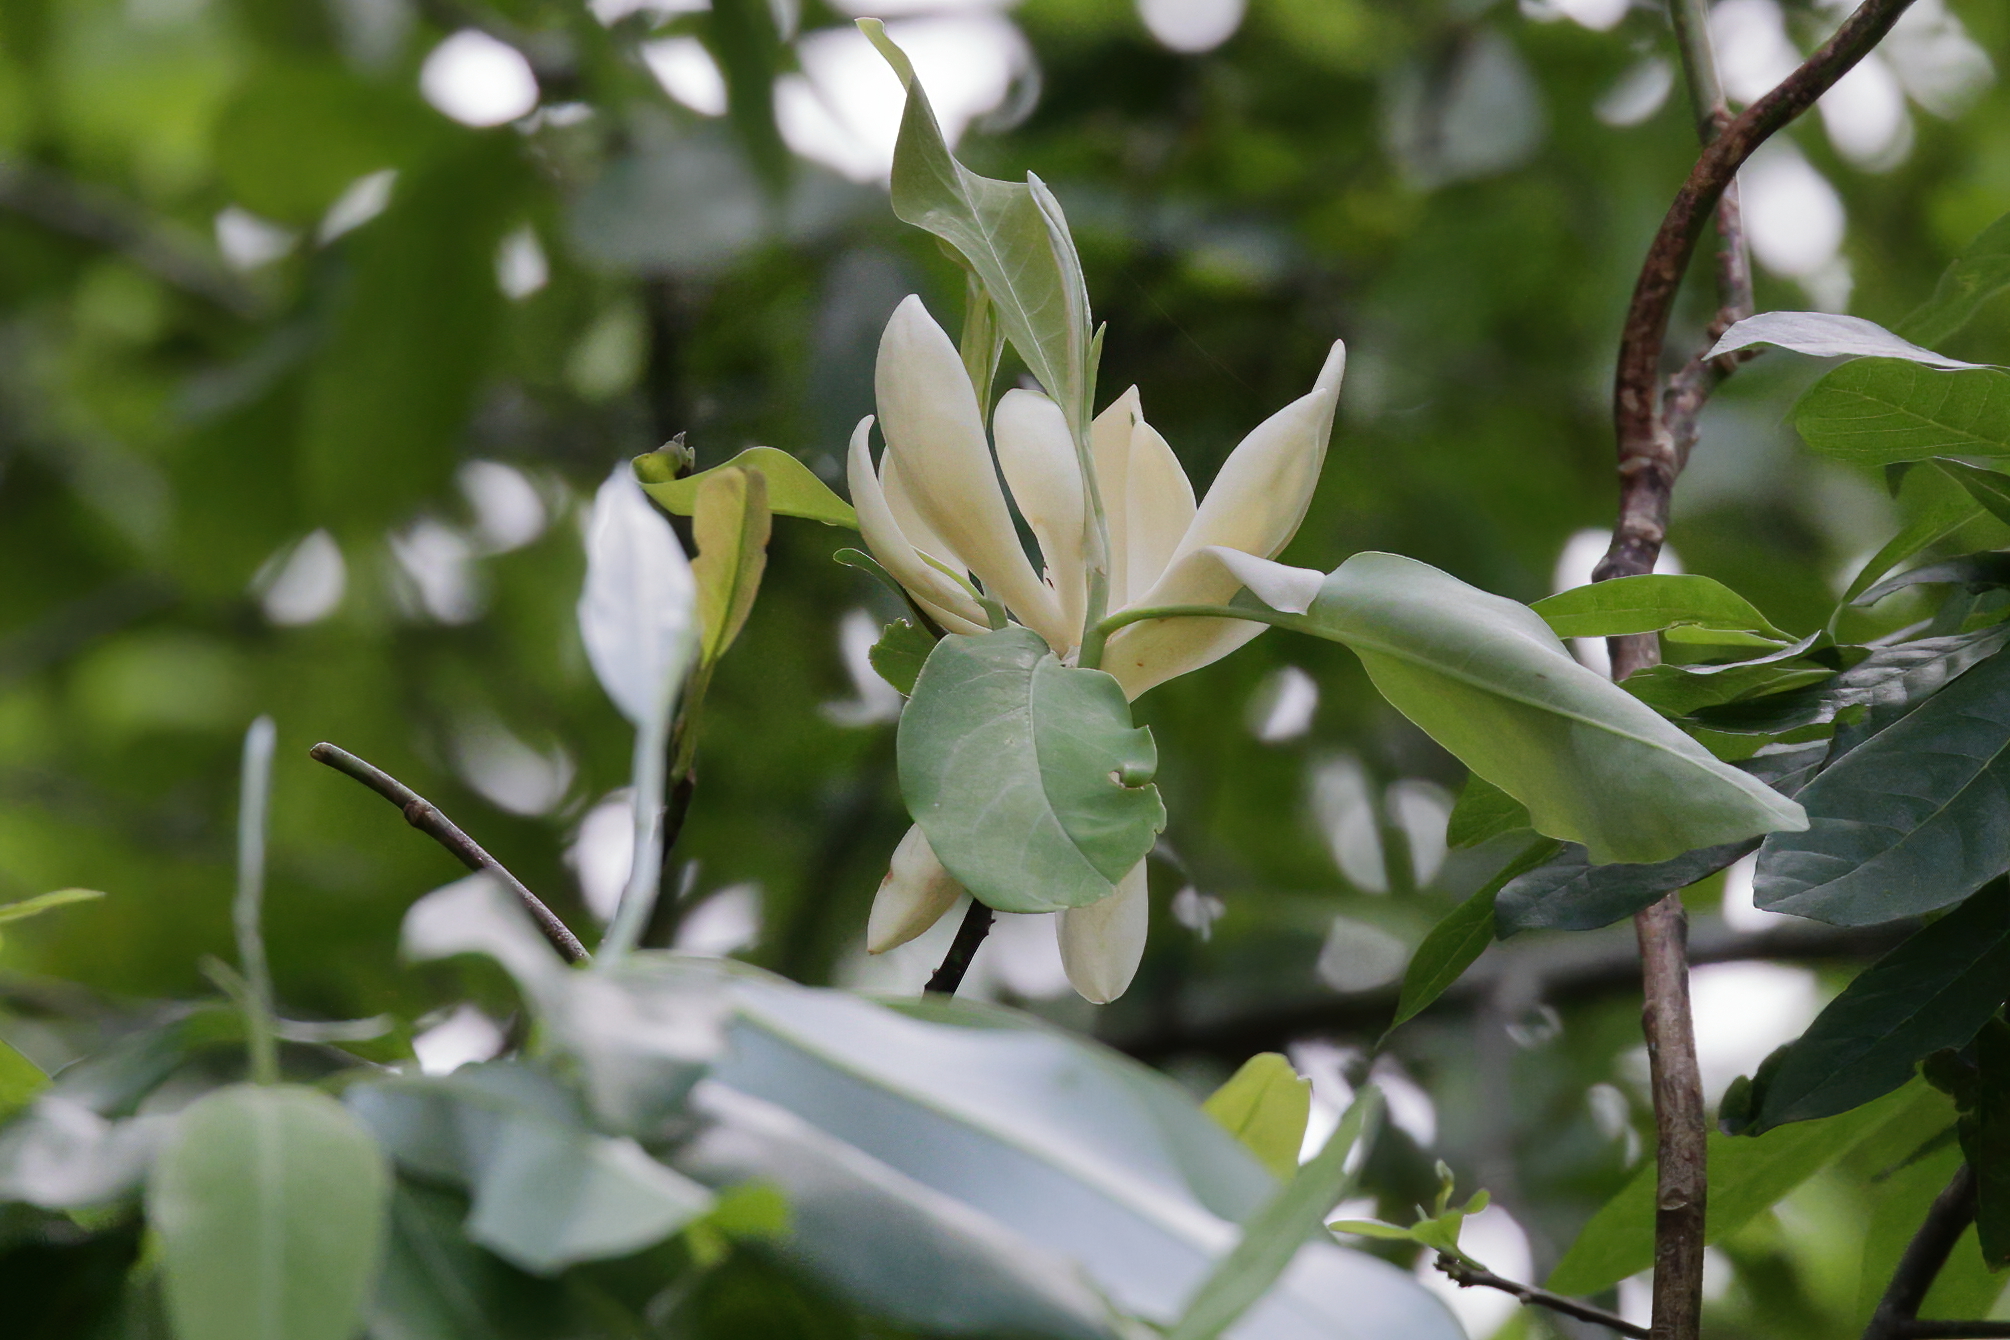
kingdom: Plantae
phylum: Tracheophyta
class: Magnoliopsida
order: Magnoliales
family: Magnoliaceae
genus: Magnolia
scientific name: Magnolia virginiana
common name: Swamp bay
